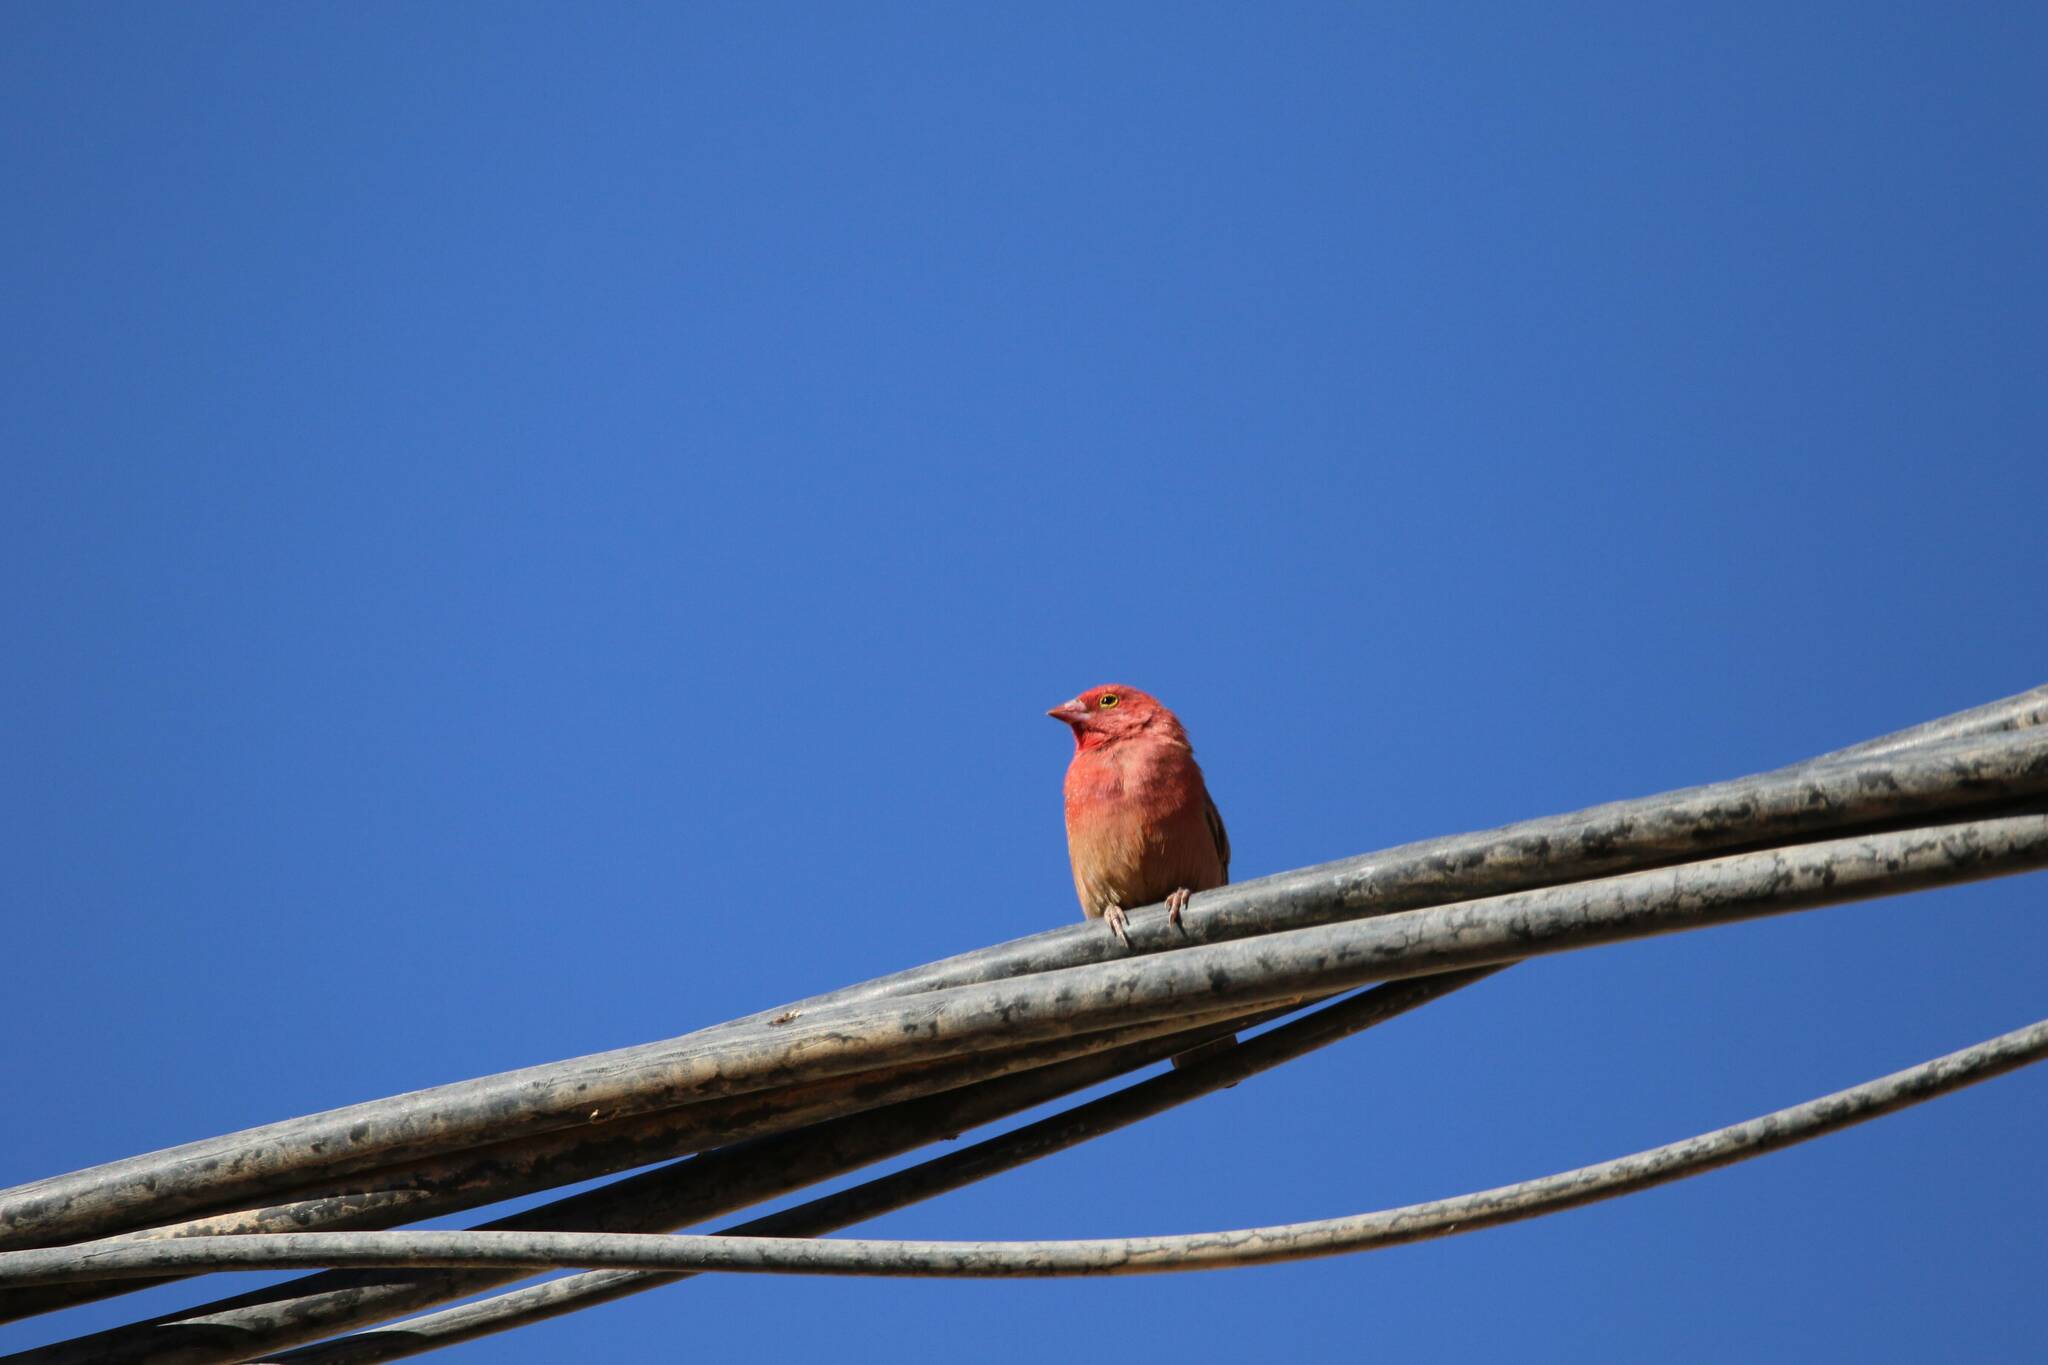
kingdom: Animalia
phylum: Chordata
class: Aves
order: Passeriformes
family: Estrildidae
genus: Lagonosticta
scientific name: Lagonosticta senegala
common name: Red-billed firefinch
